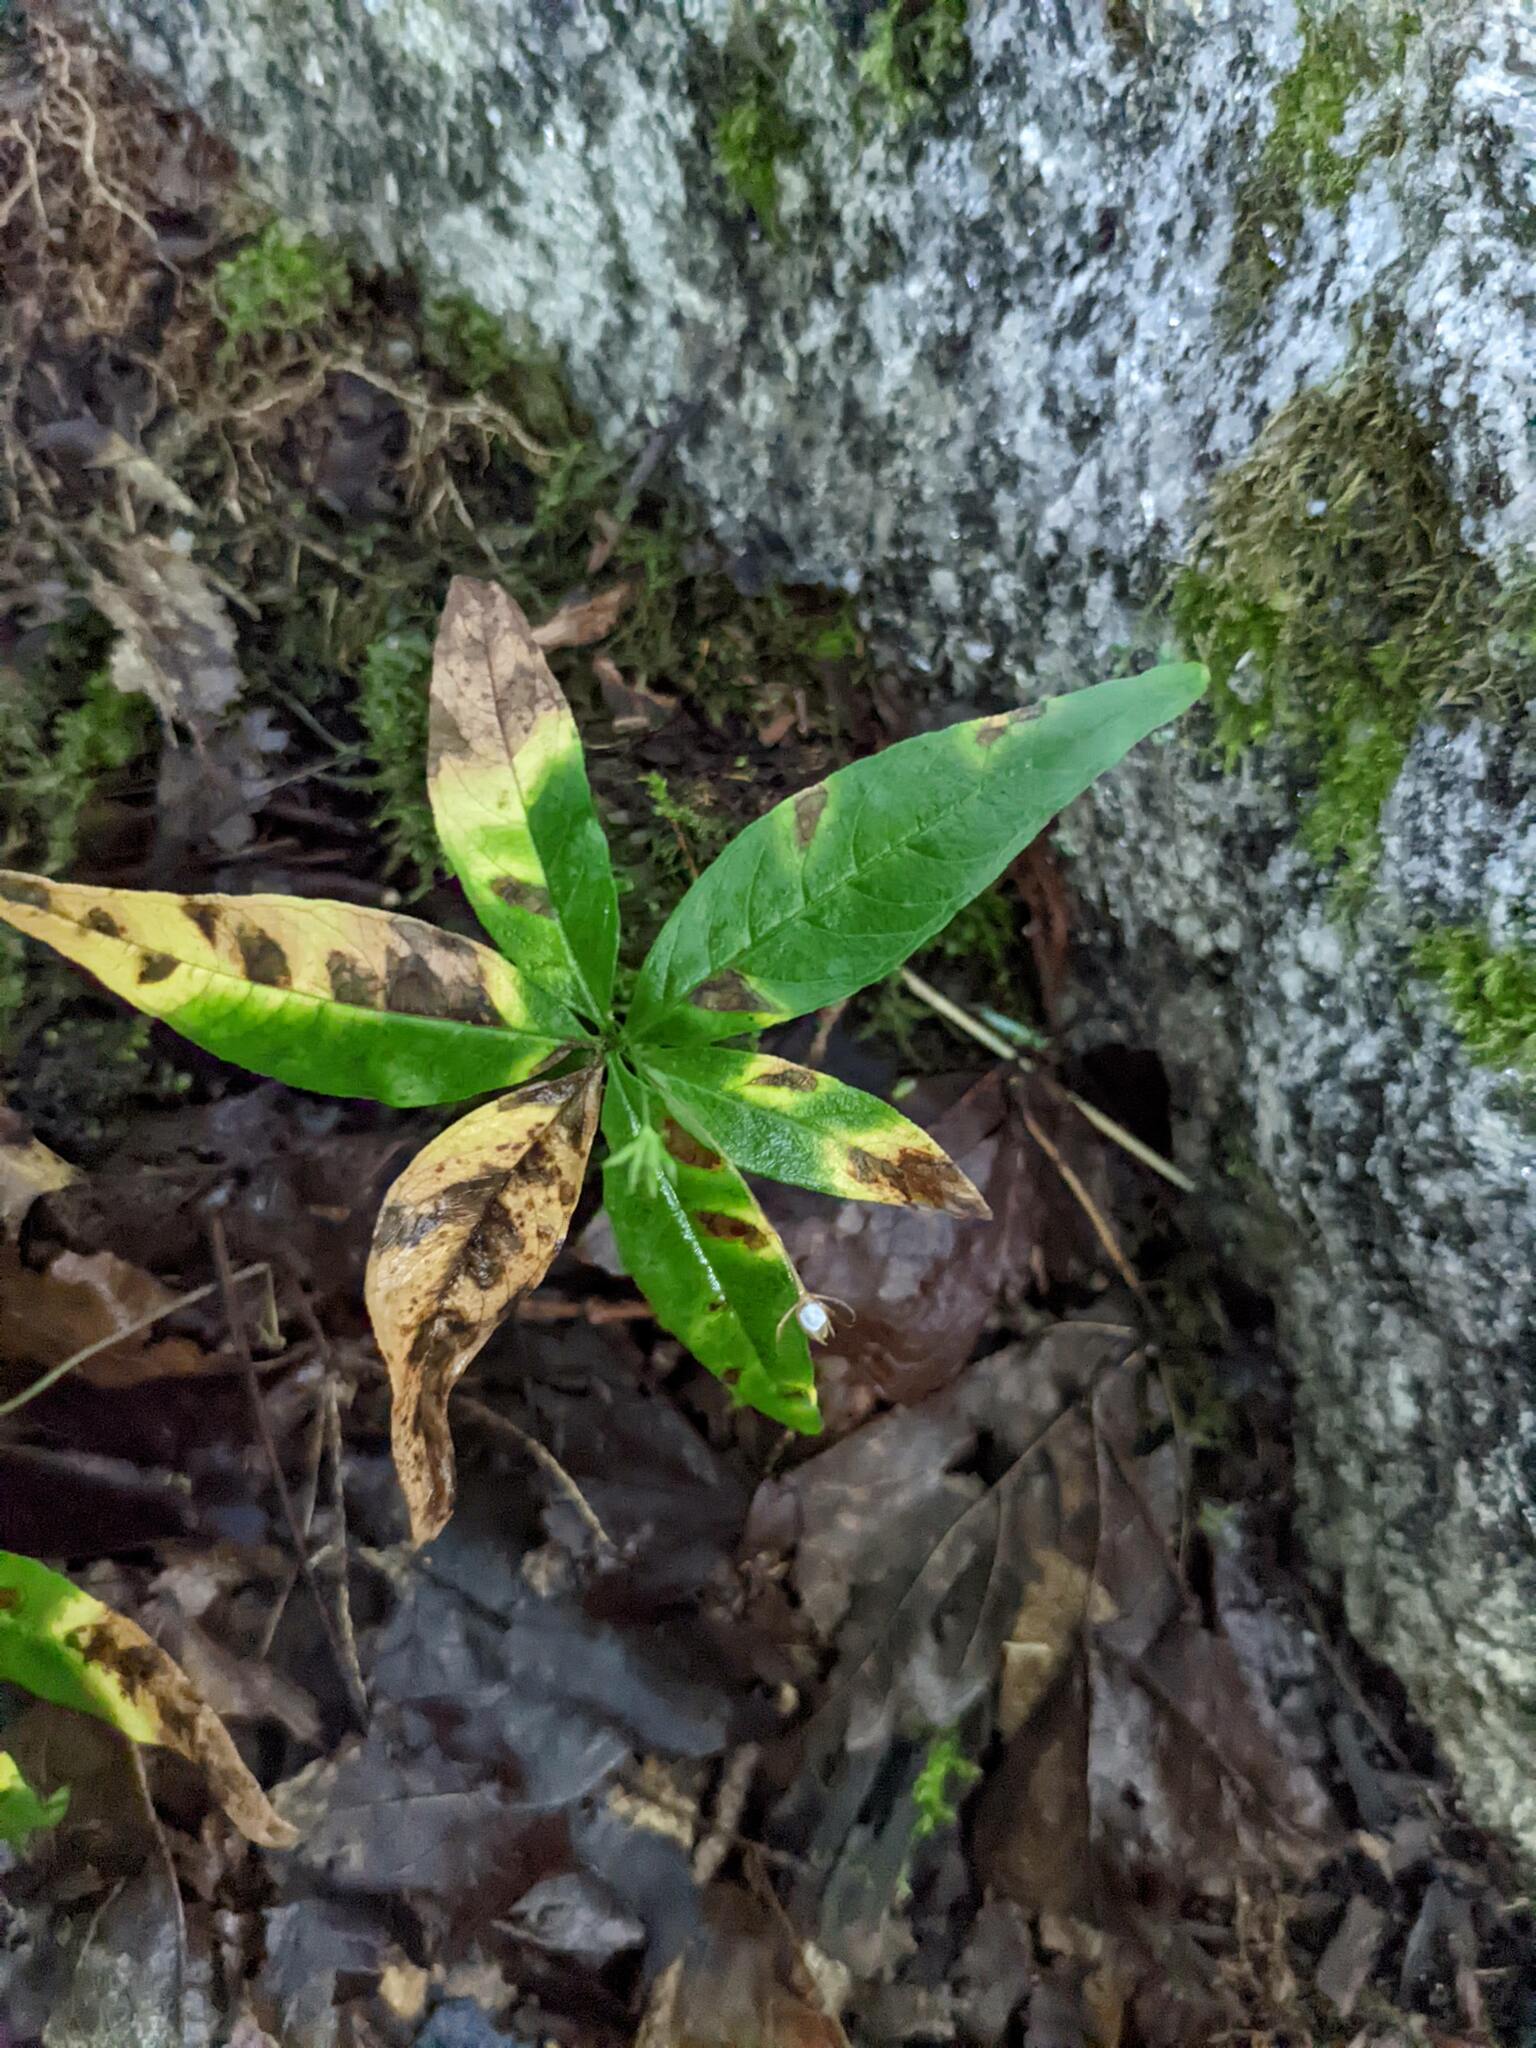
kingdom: Plantae
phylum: Tracheophyta
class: Magnoliopsida
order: Ericales
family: Primulaceae
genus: Lysimachia
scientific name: Lysimachia borealis
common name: American starflower
